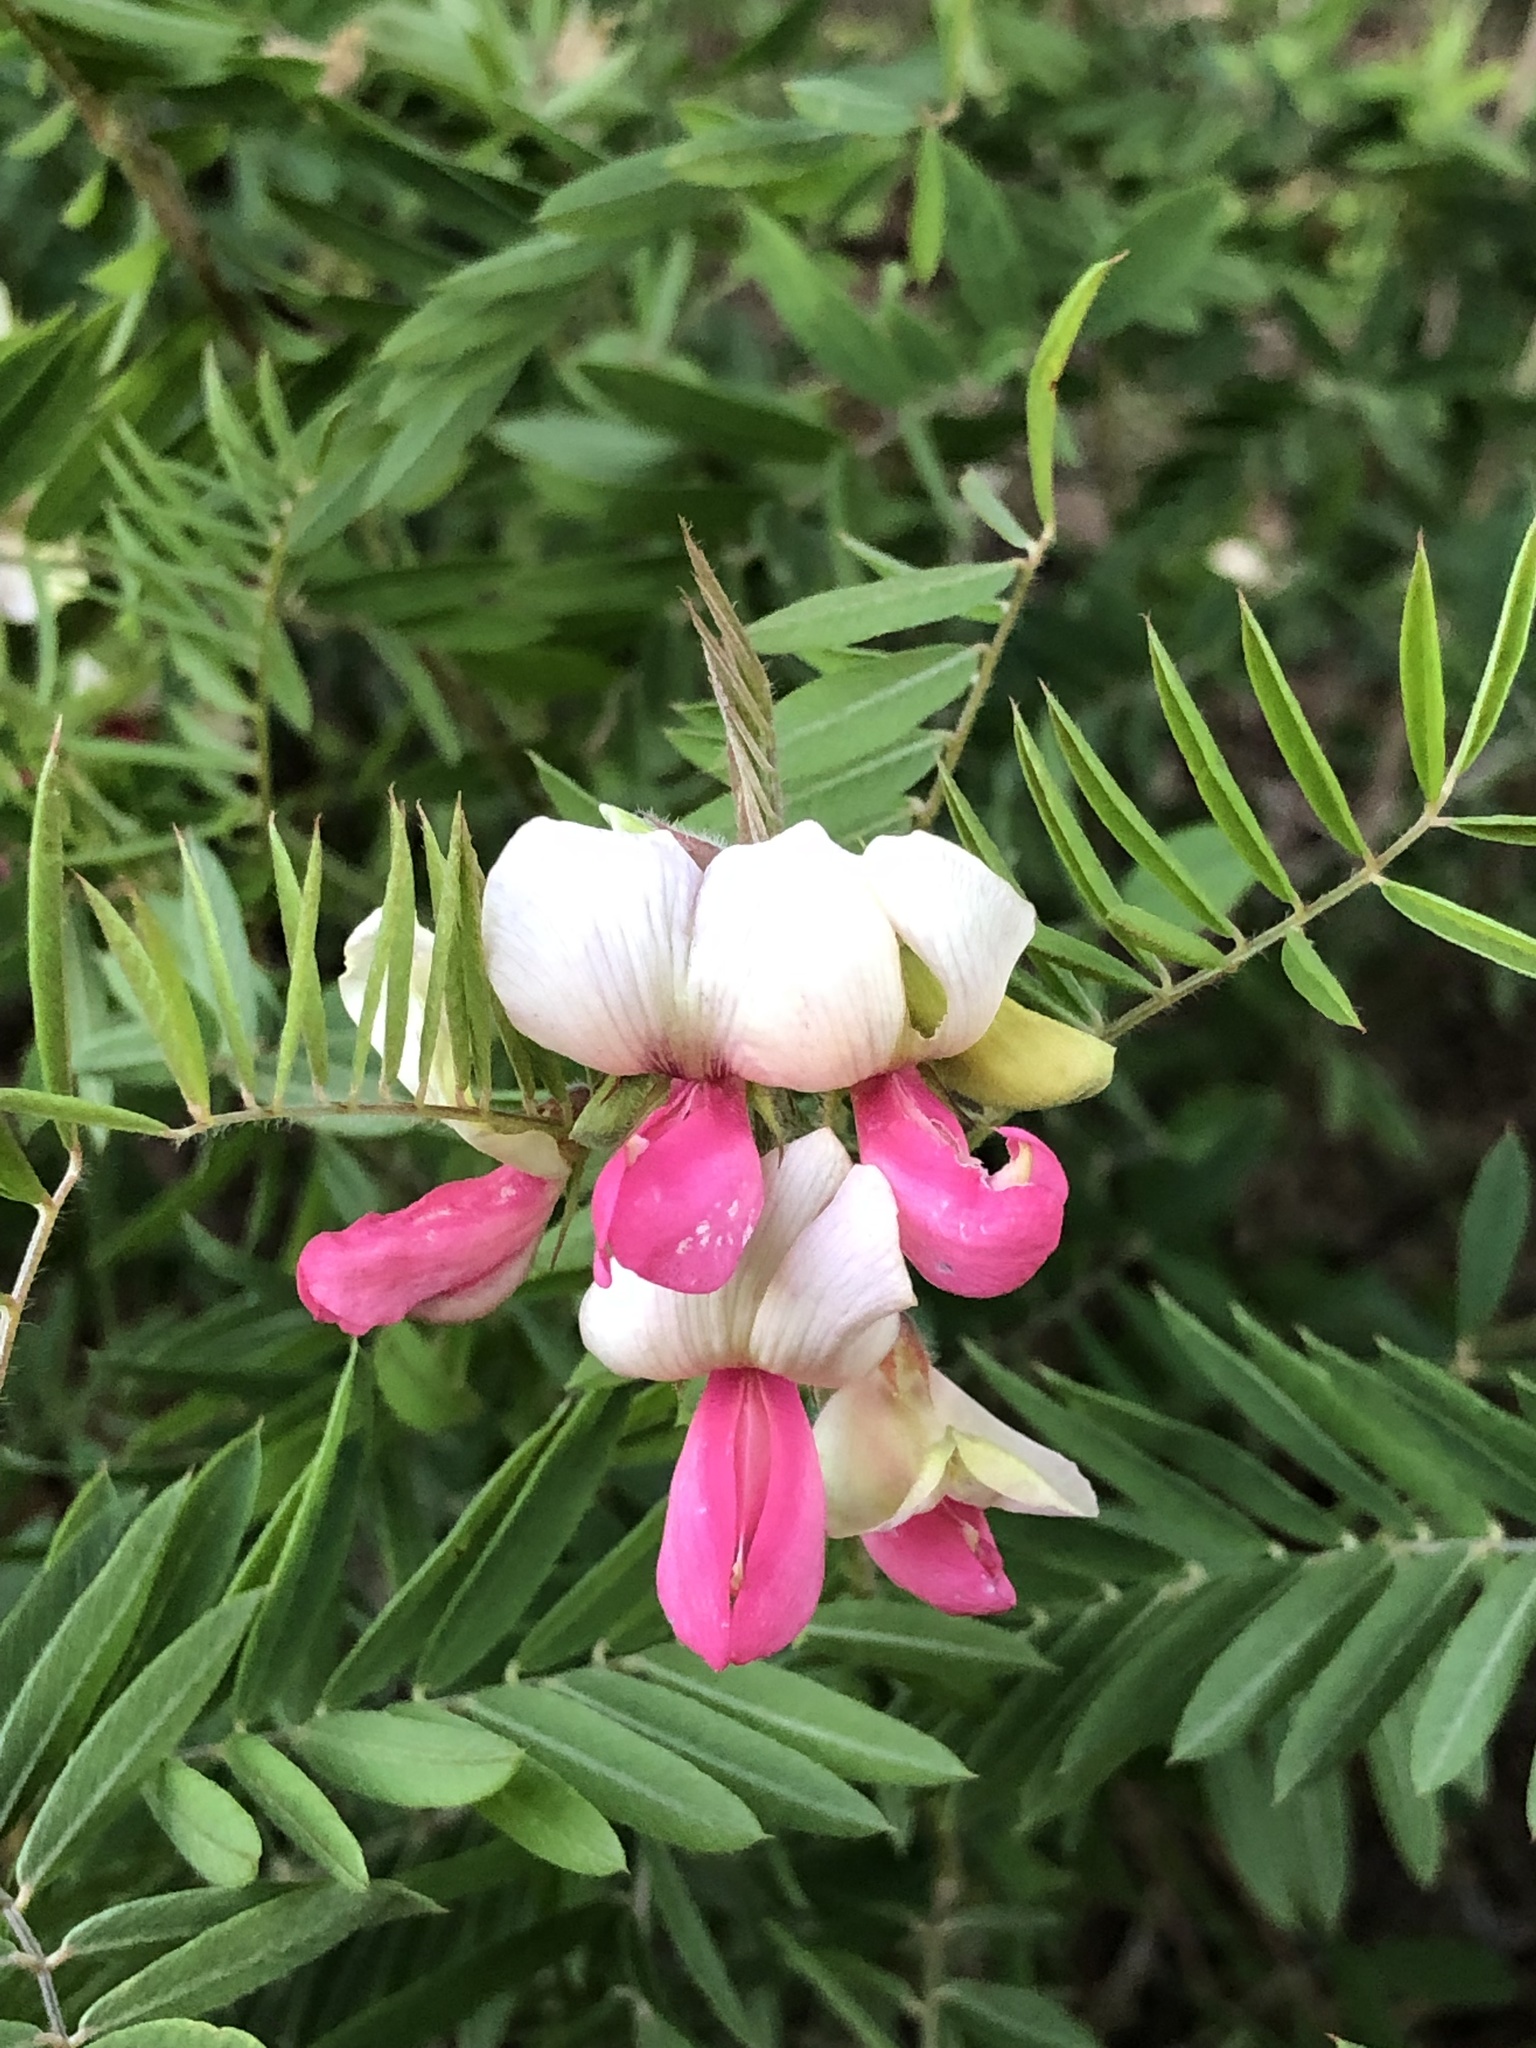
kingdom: Plantae
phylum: Tracheophyta
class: Magnoliopsida
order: Fabales
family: Fabaceae
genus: Tephrosia
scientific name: Tephrosia virginiana
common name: Rabbit-pea
